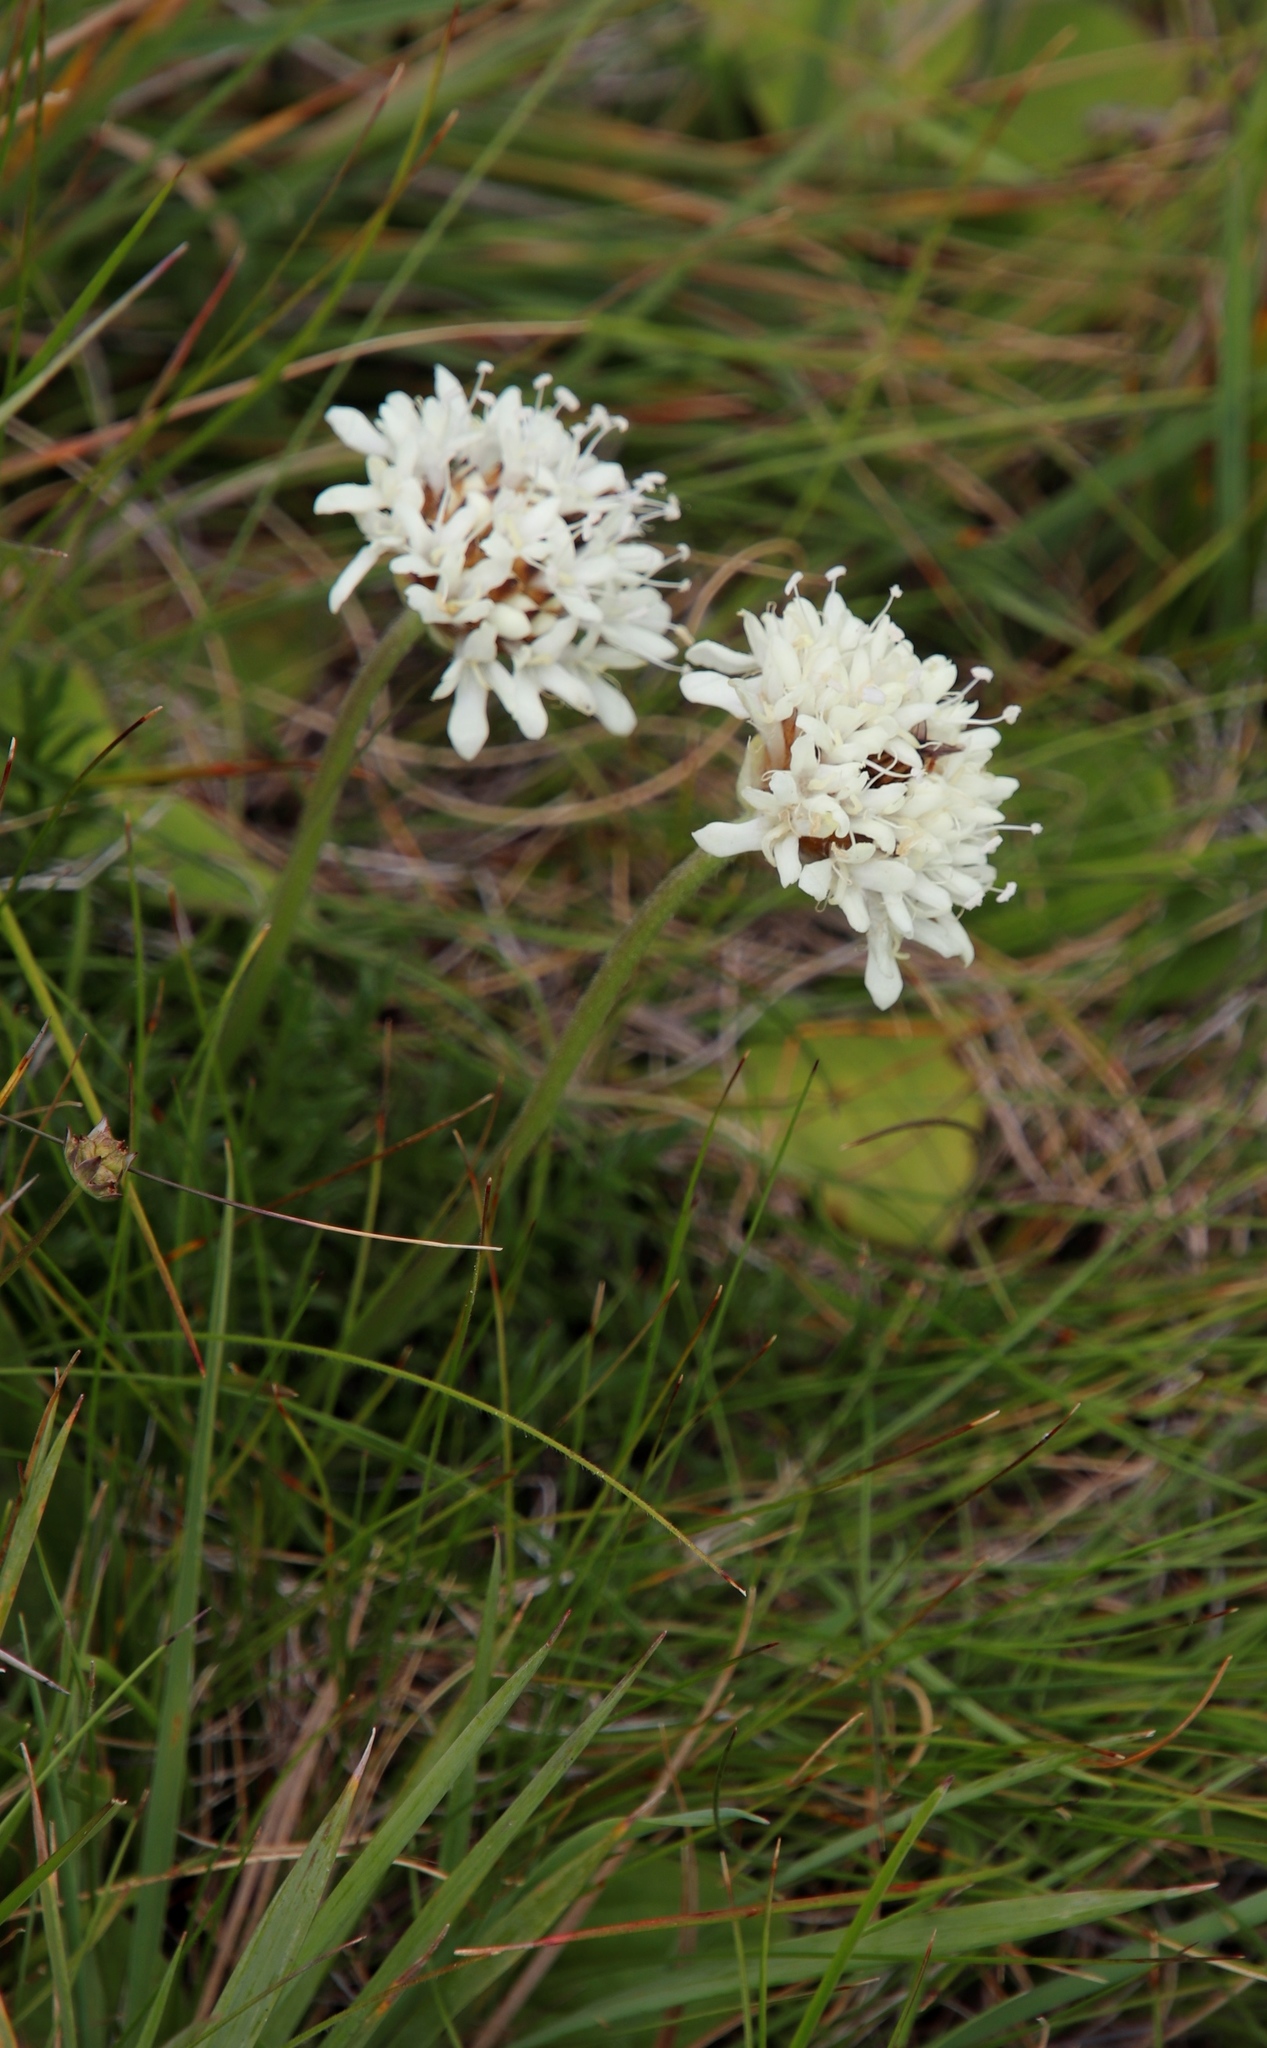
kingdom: Plantae
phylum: Tracheophyta
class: Magnoliopsida
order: Dipsacales
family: Caprifoliaceae
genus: Cephalaria
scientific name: Cephalaria galpiniana
